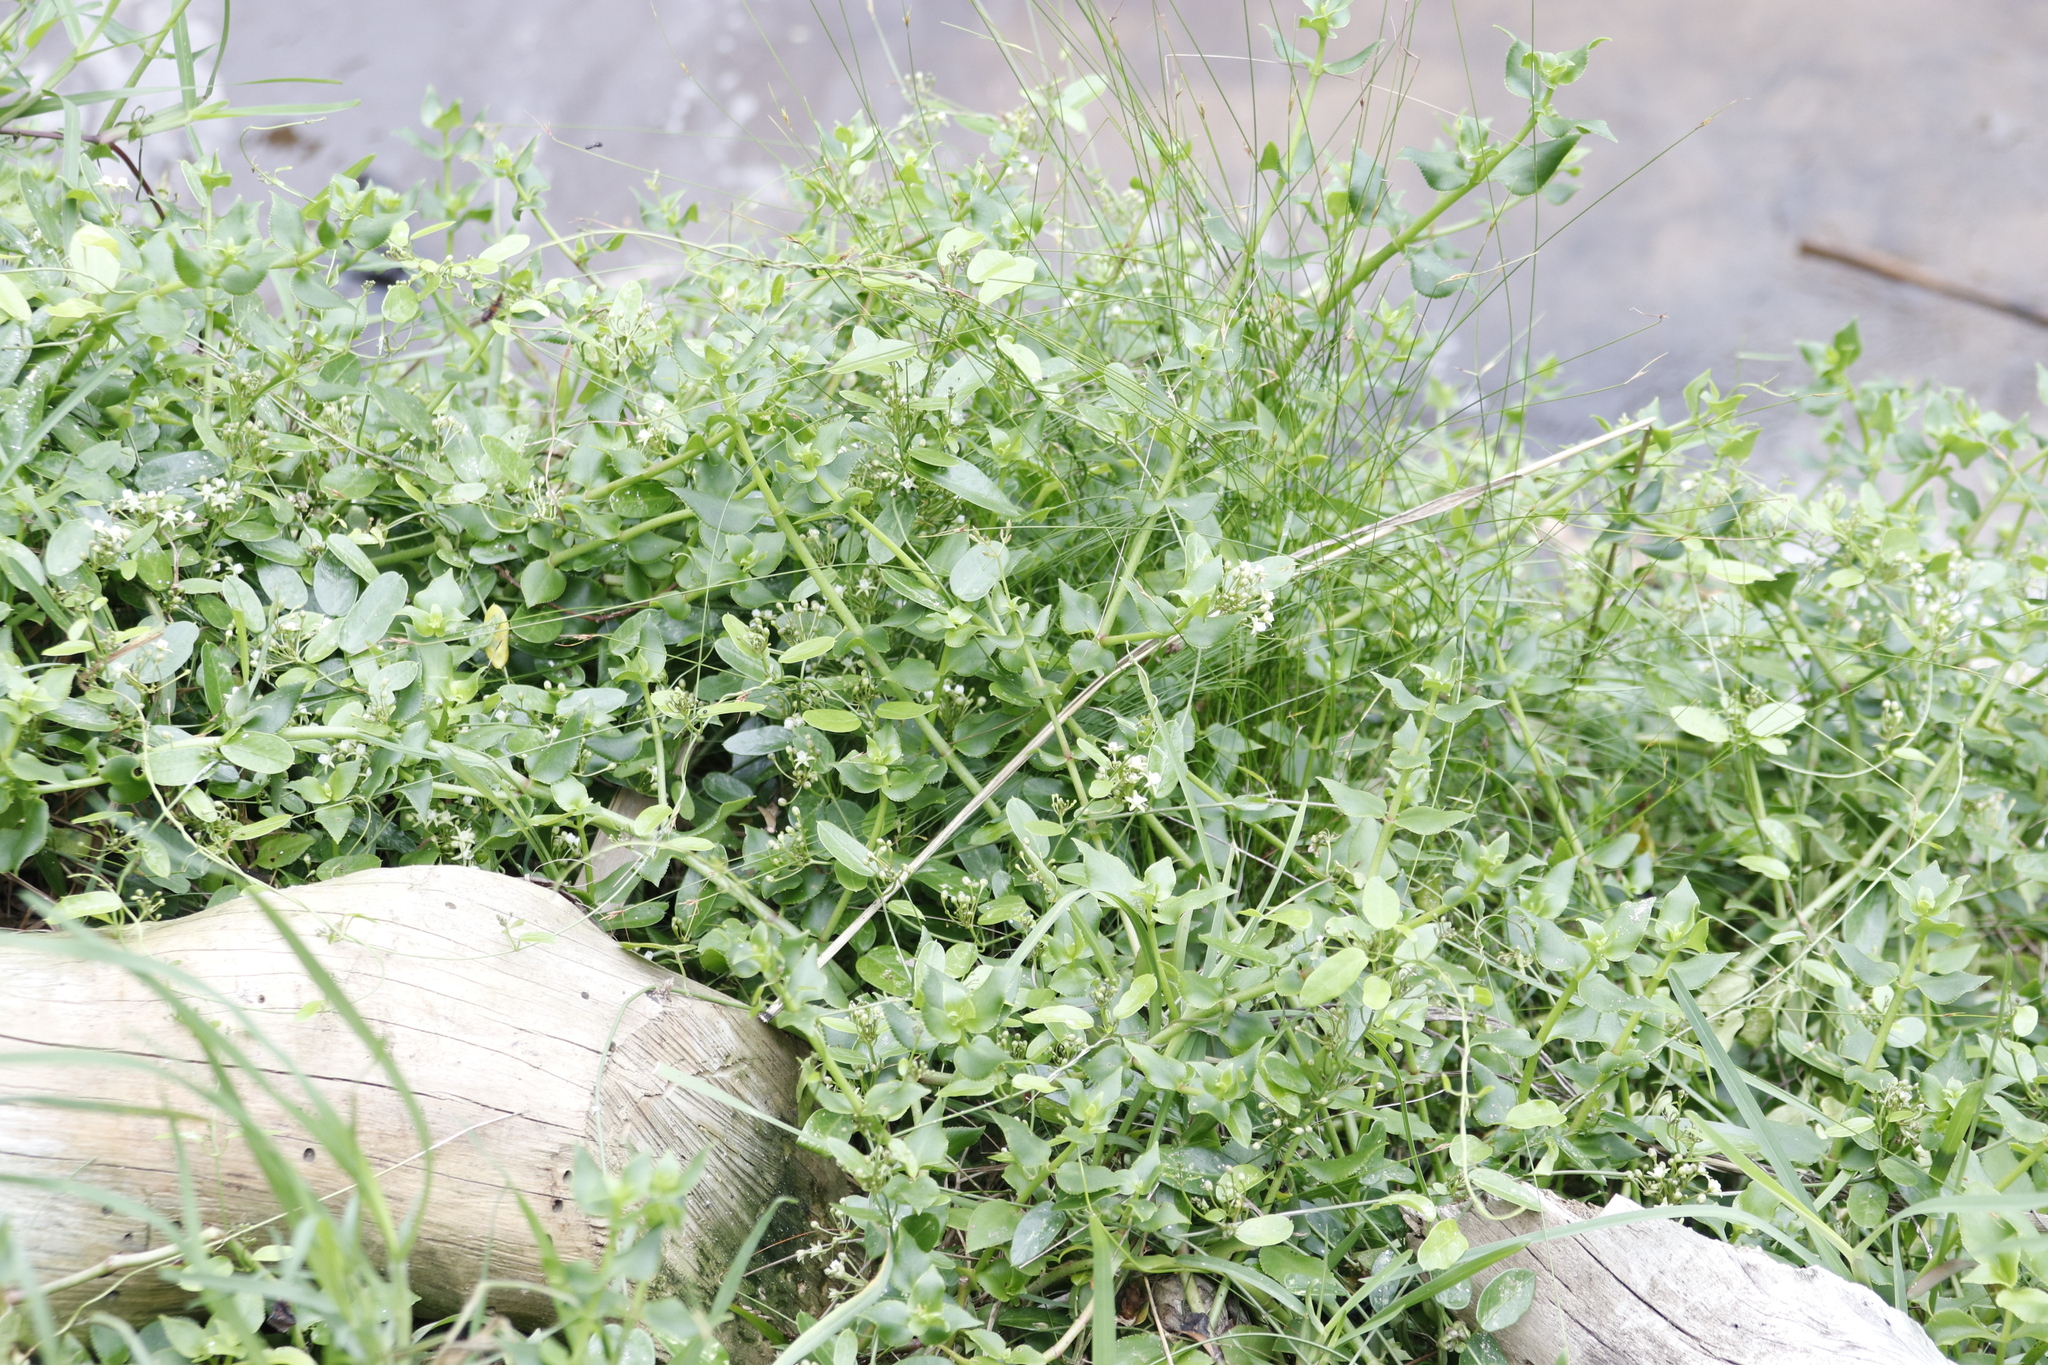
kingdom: Plantae
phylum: Tracheophyta
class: Magnoliopsida
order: Saxifragales
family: Crassulaceae
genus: Crassula
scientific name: Crassula sarmentosa
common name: Jade-tree
